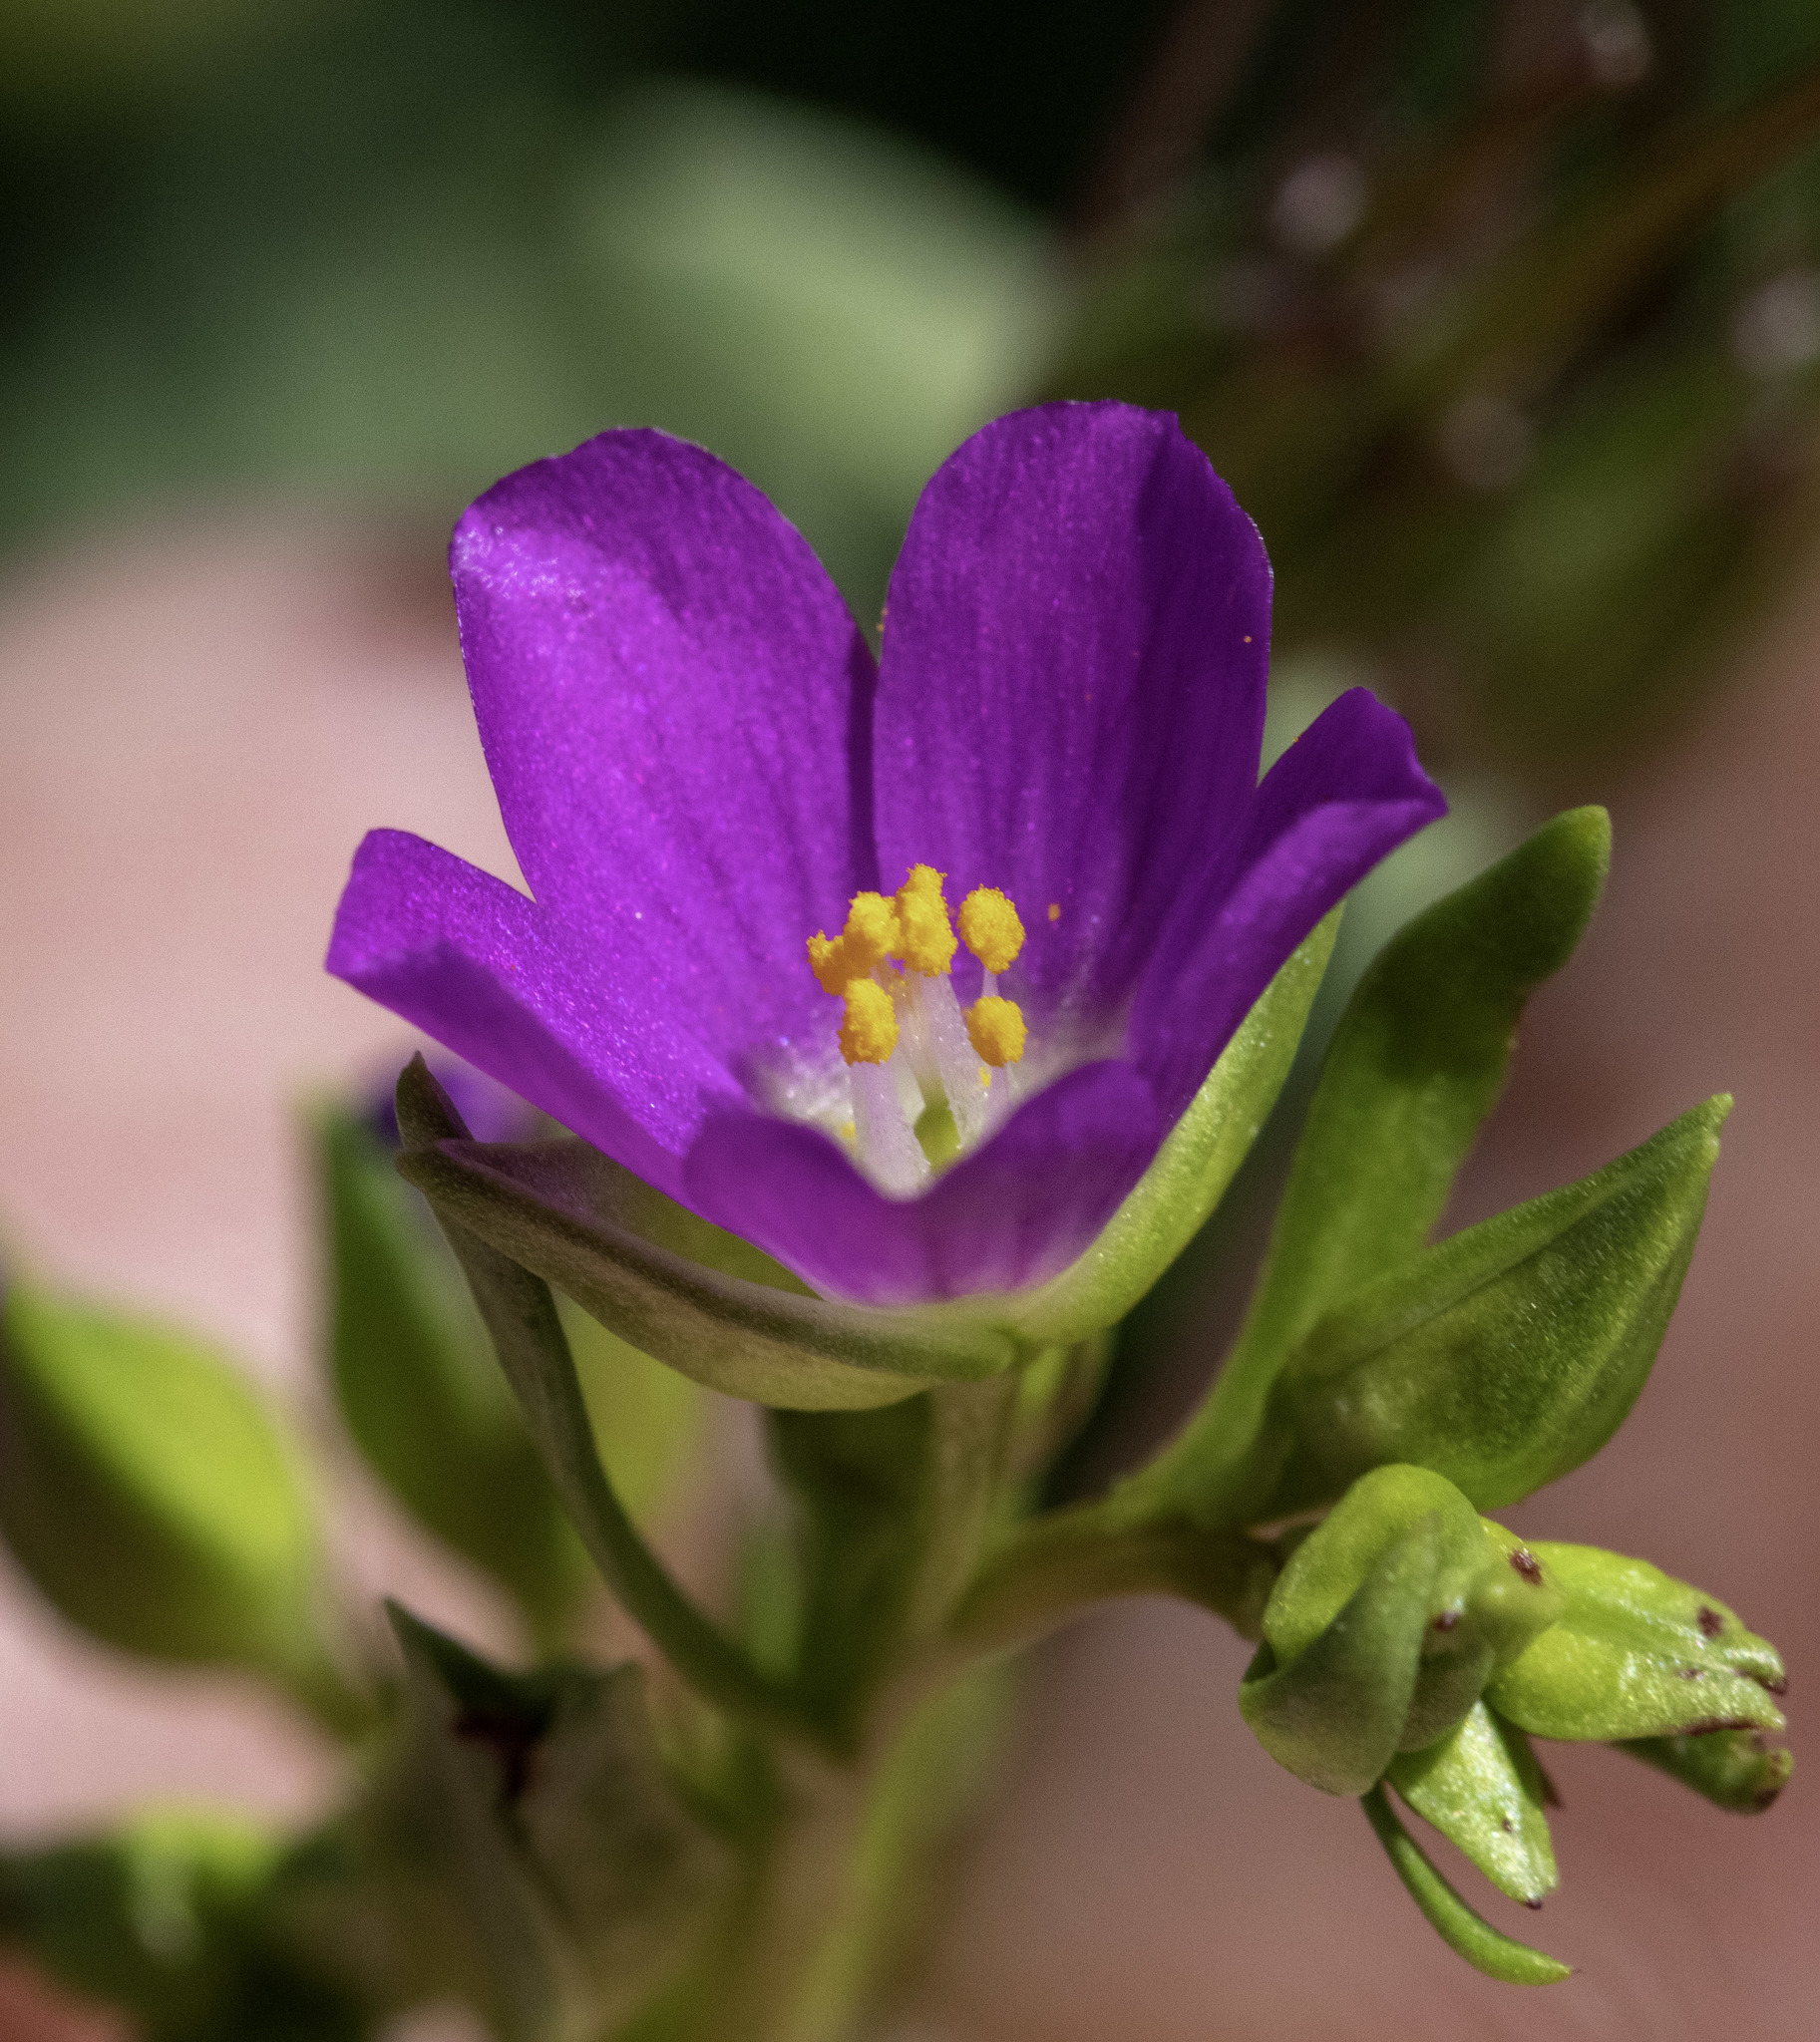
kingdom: Plantae
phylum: Tracheophyta
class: Magnoliopsida
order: Caryophyllales
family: Montiaceae
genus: Calandrinia
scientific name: Calandrinia menziesii
